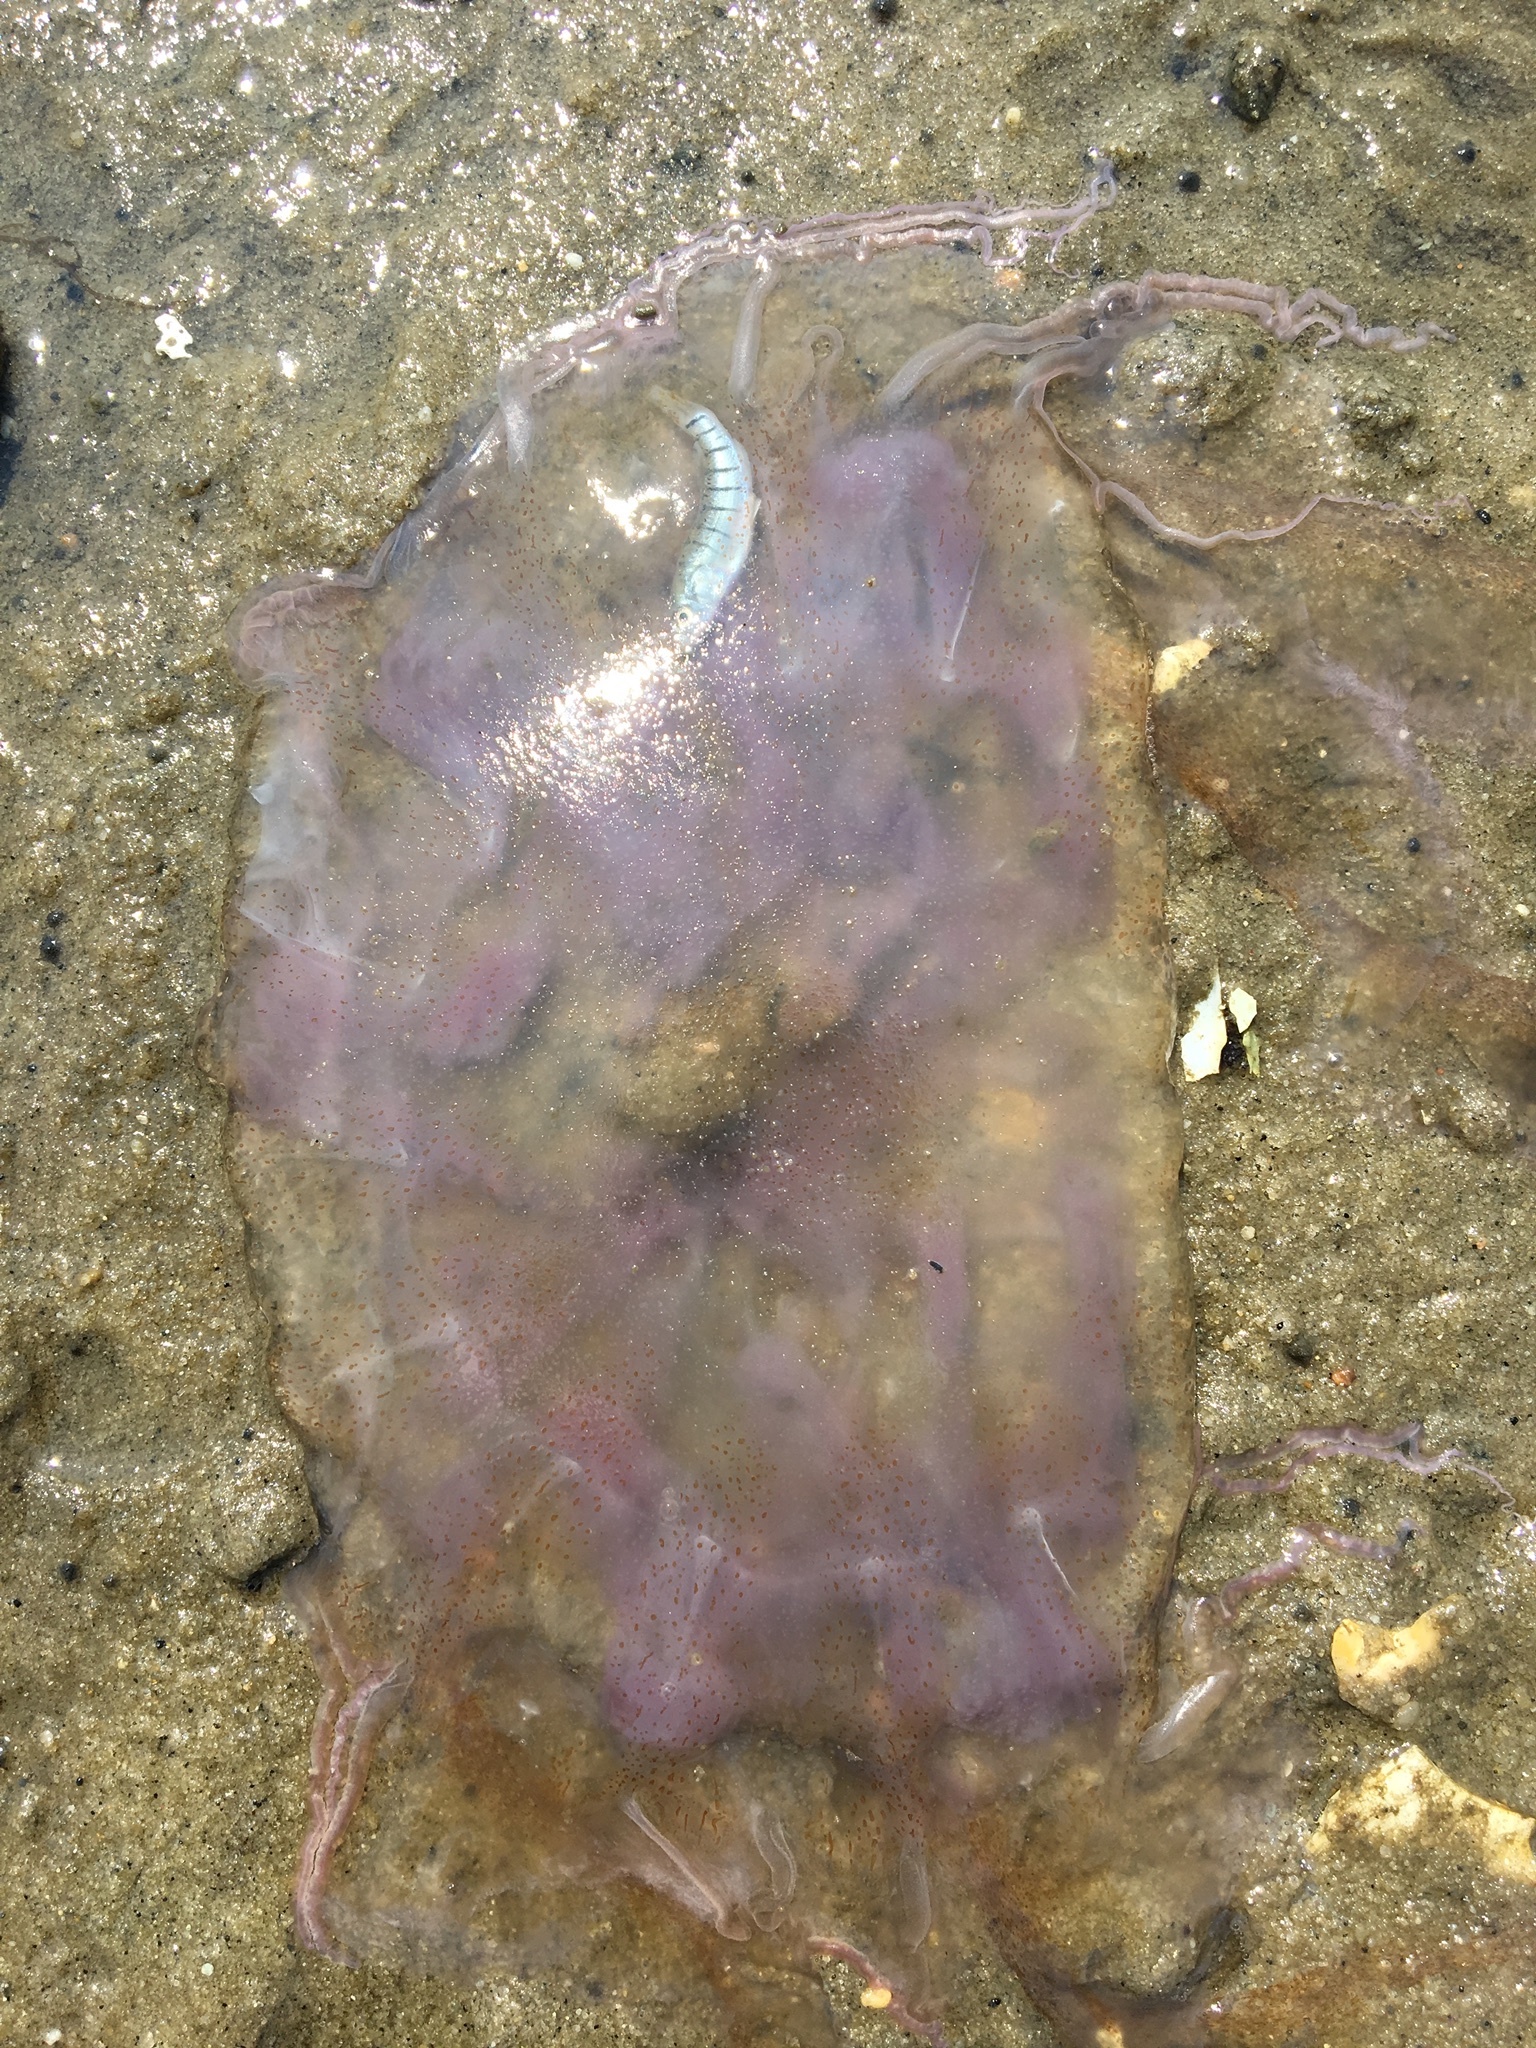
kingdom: Animalia
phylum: Cnidaria
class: Scyphozoa
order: Semaeostomeae
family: Pelagiidae
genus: Chrysaora
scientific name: Chrysaora chesapeakei
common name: Bay nettle
